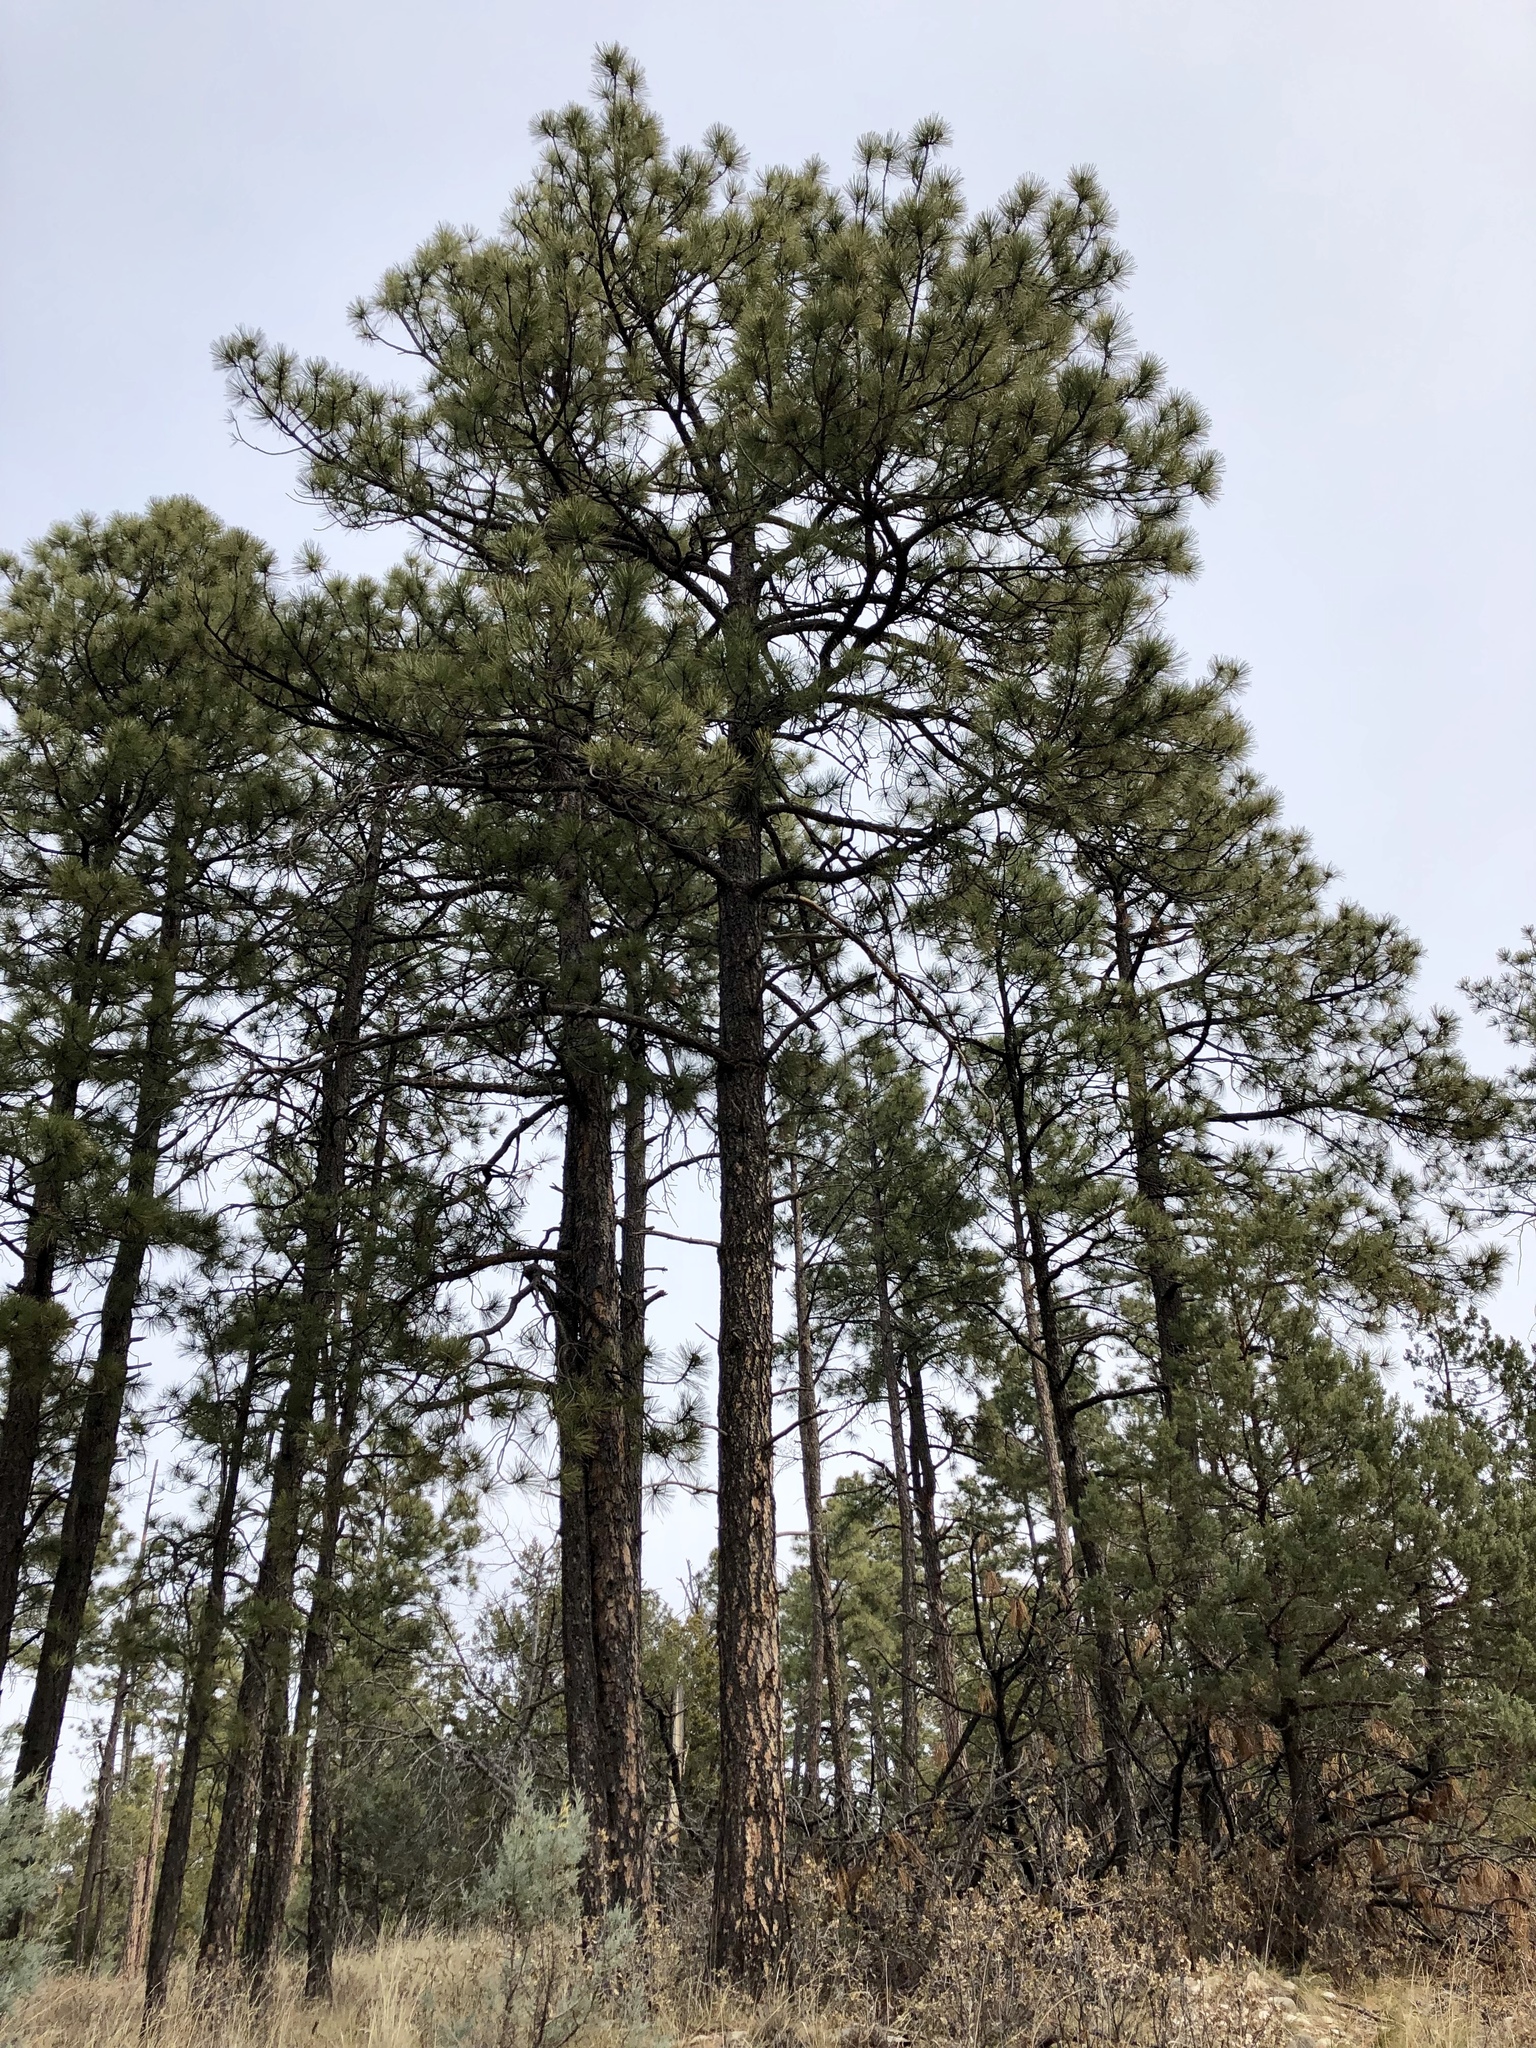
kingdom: Plantae
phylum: Tracheophyta
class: Pinopsida
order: Pinales
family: Pinaceae
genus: Pinus
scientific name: Pinus ponderosa
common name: Western yellow-pine
